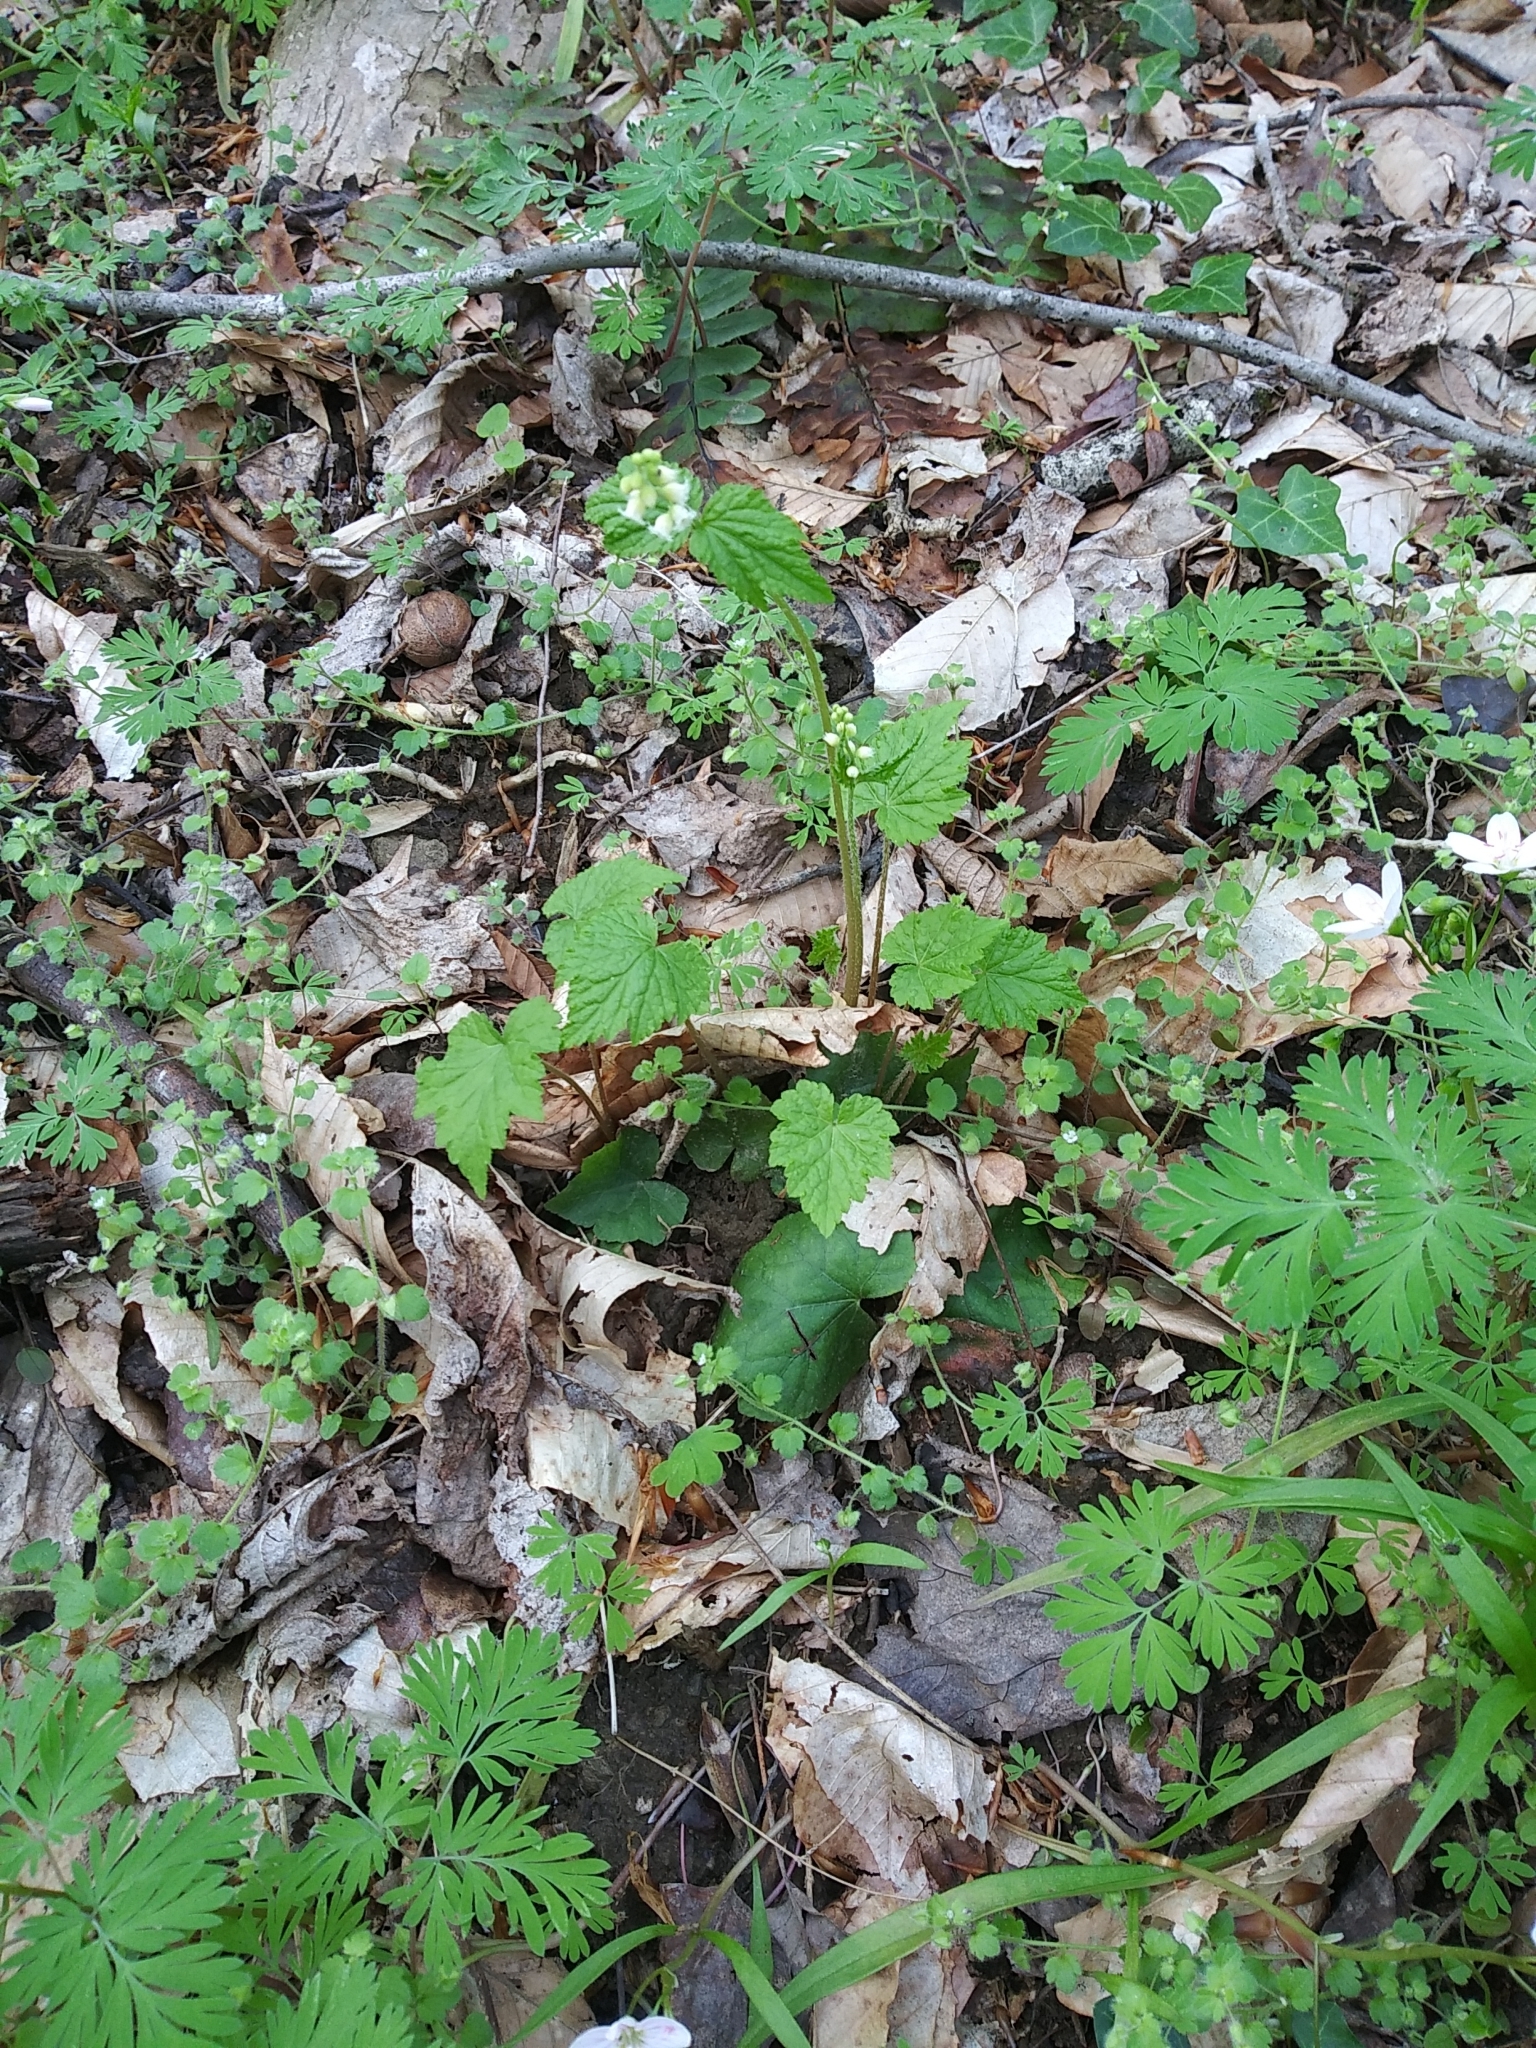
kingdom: Plantae
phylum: Tracheophyta
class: Magnoliopsida
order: Saxifragales
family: Saxifragaceae
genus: Mitella
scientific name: Mitella diphylla
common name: Coolwort
